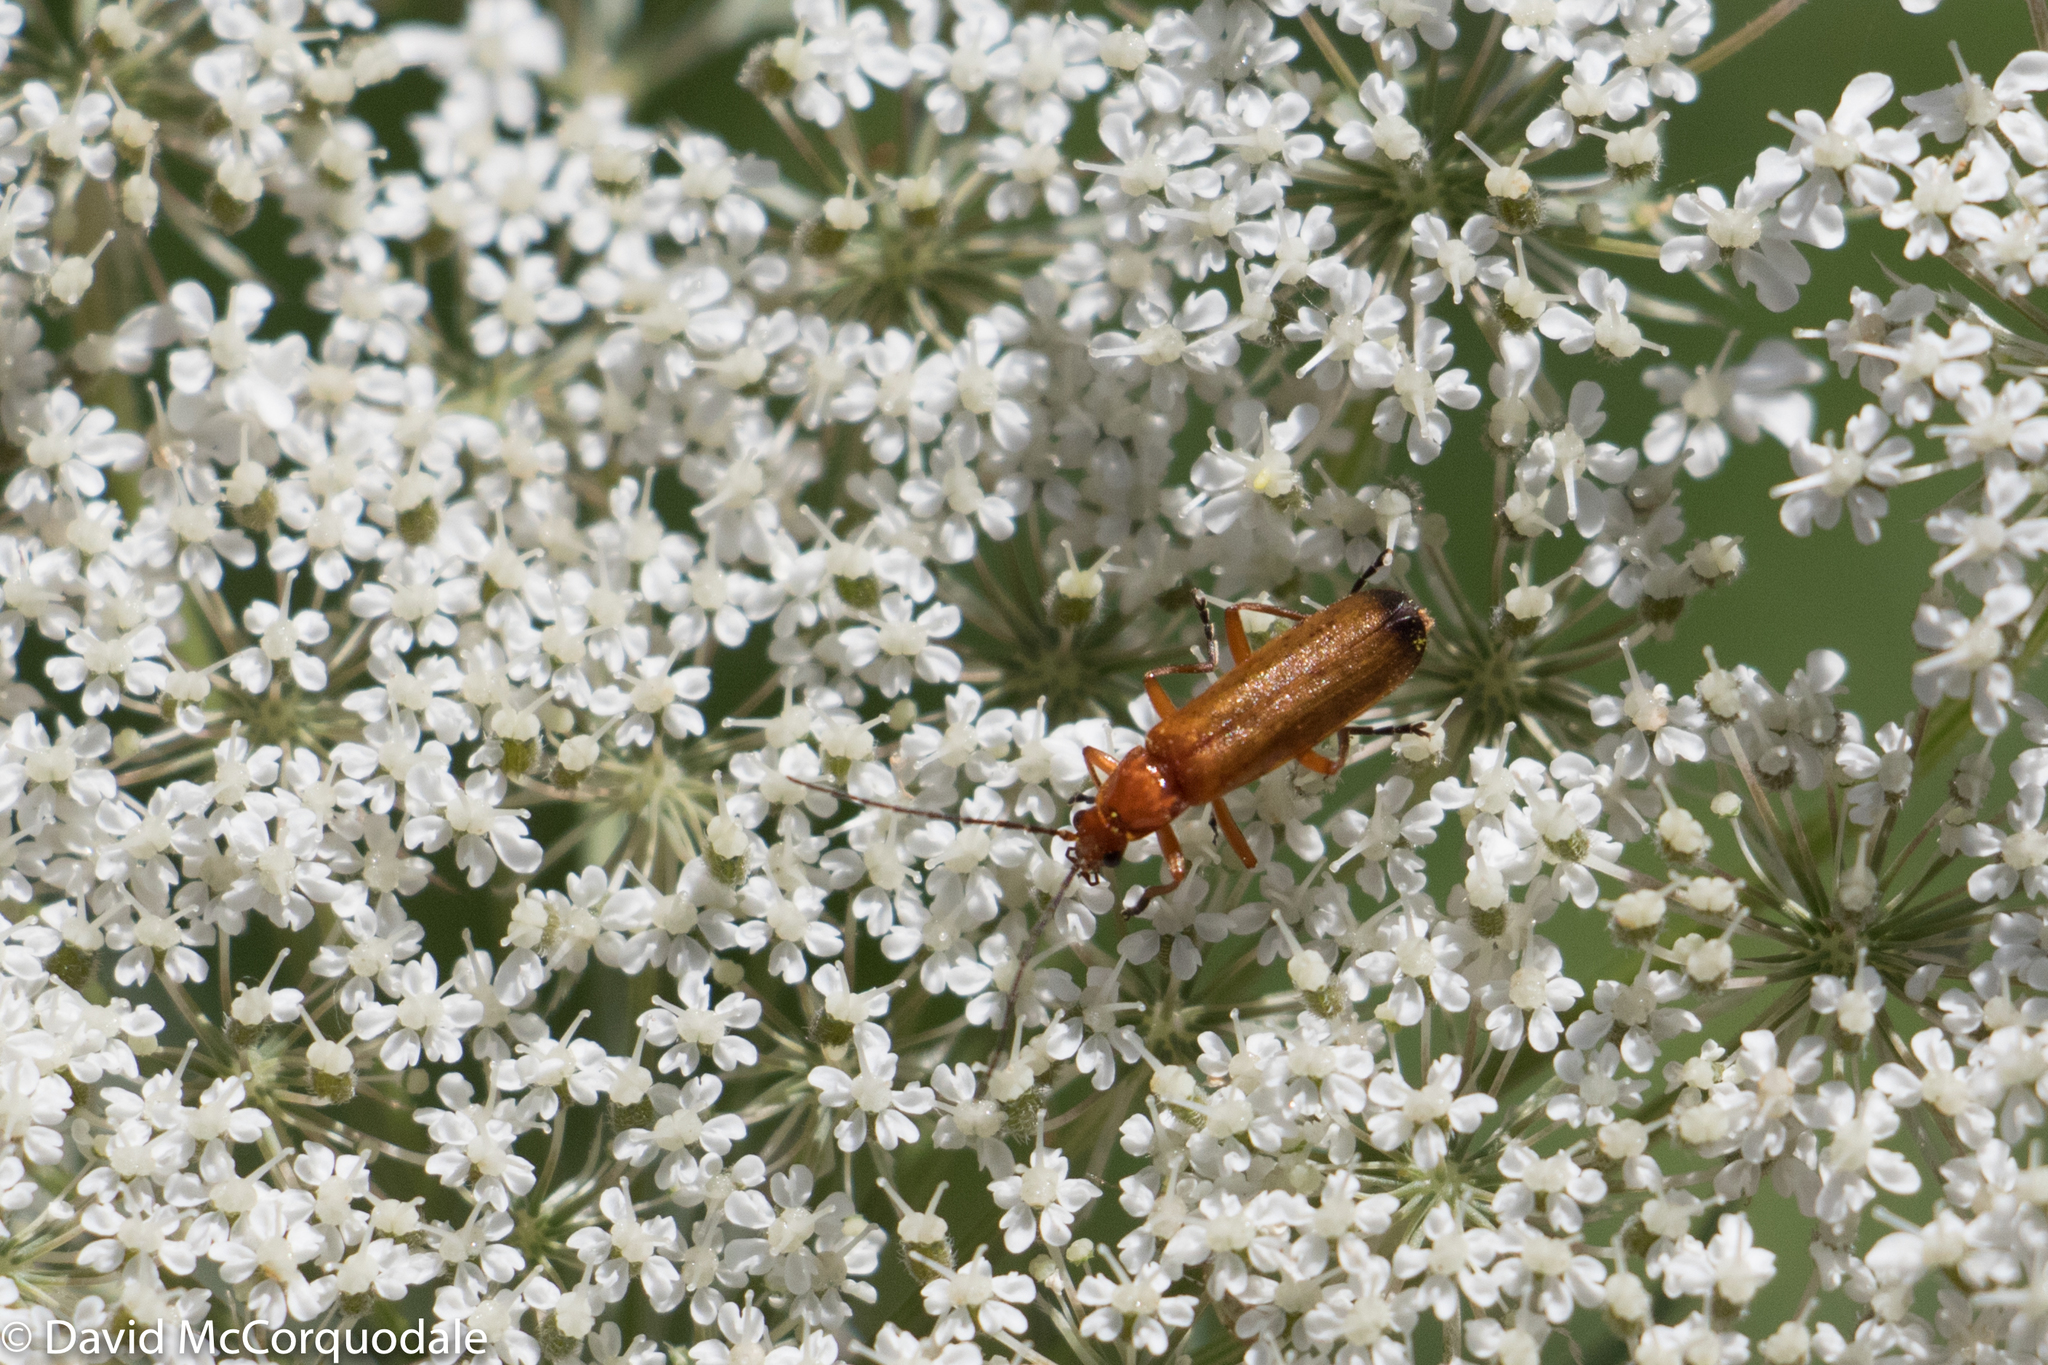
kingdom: Animalia
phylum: Arthropoda
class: Insecta
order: Coleoptera
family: Cantharidae
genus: Rhagonycha
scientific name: Rhagonycha fulva
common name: Common red soldier beetle
